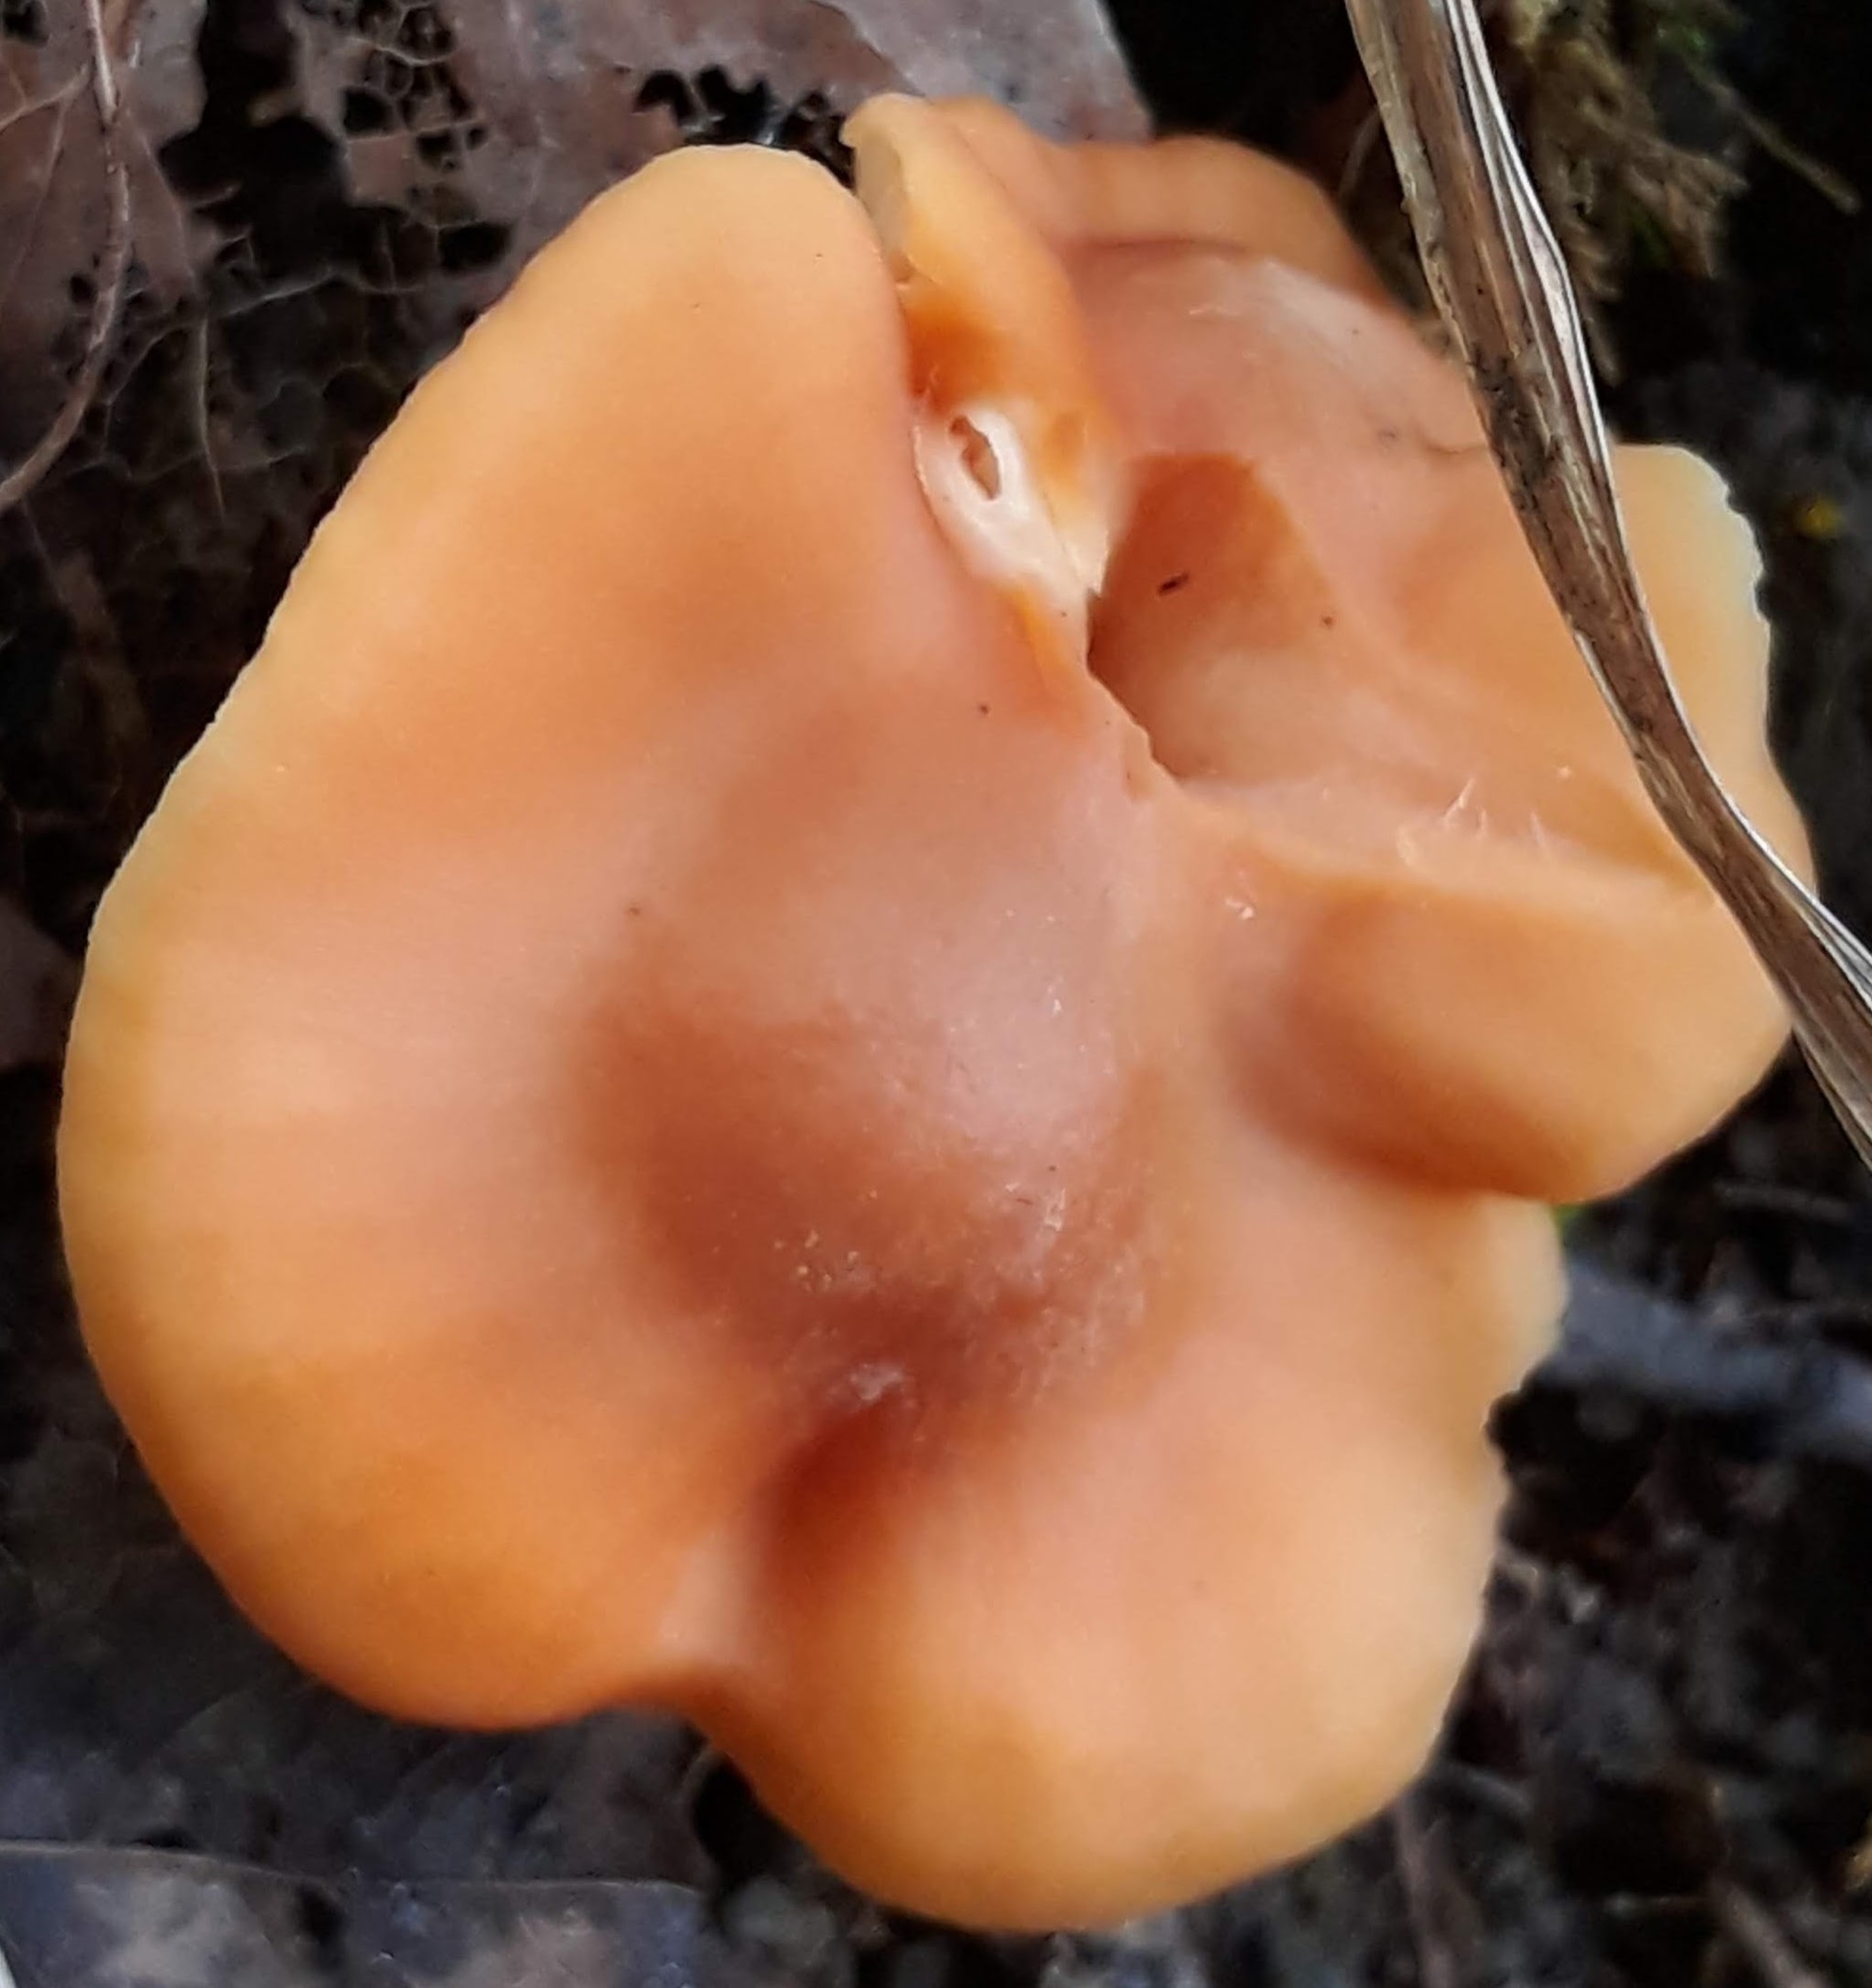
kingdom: Fungi
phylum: Basidiomycota
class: Agaricomycetes
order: Agaricales
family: Hygrophoraceae
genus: Cuphophyllus
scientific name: Cuphophyllus pratensis
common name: Meadow waxcap
